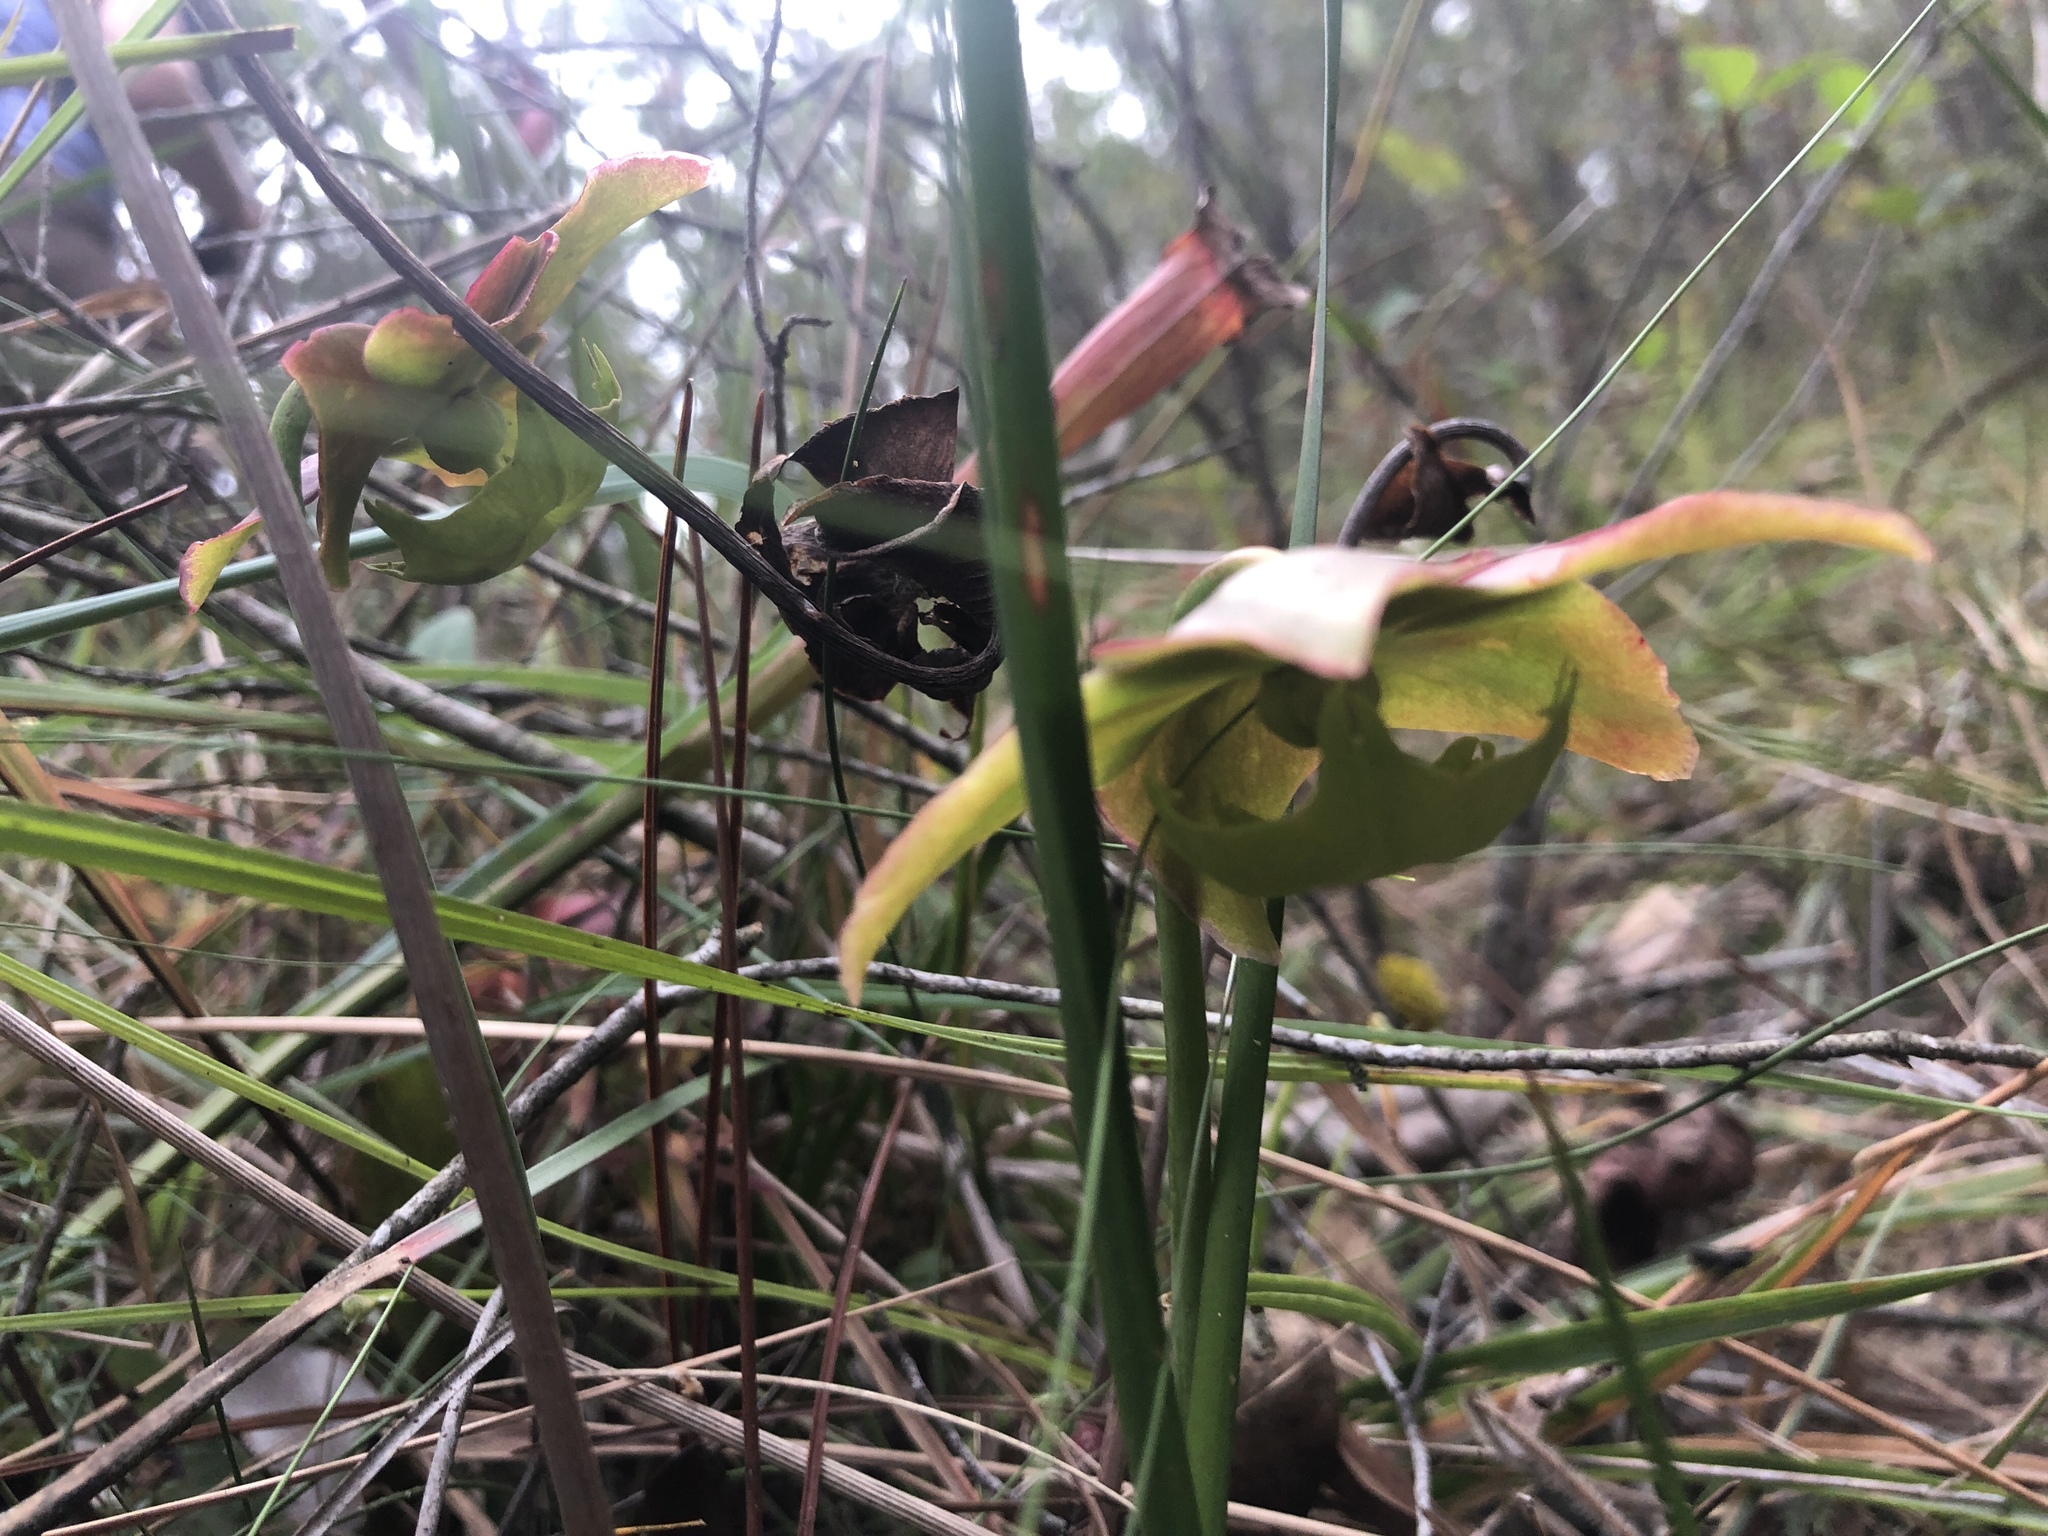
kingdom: Plantae
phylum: Tracheophyta
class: Magnoliopsida
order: Ericales
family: Sarraceniaceae
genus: Sarracenia
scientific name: Sarracenia psittacina
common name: Parrot pitcherplant
